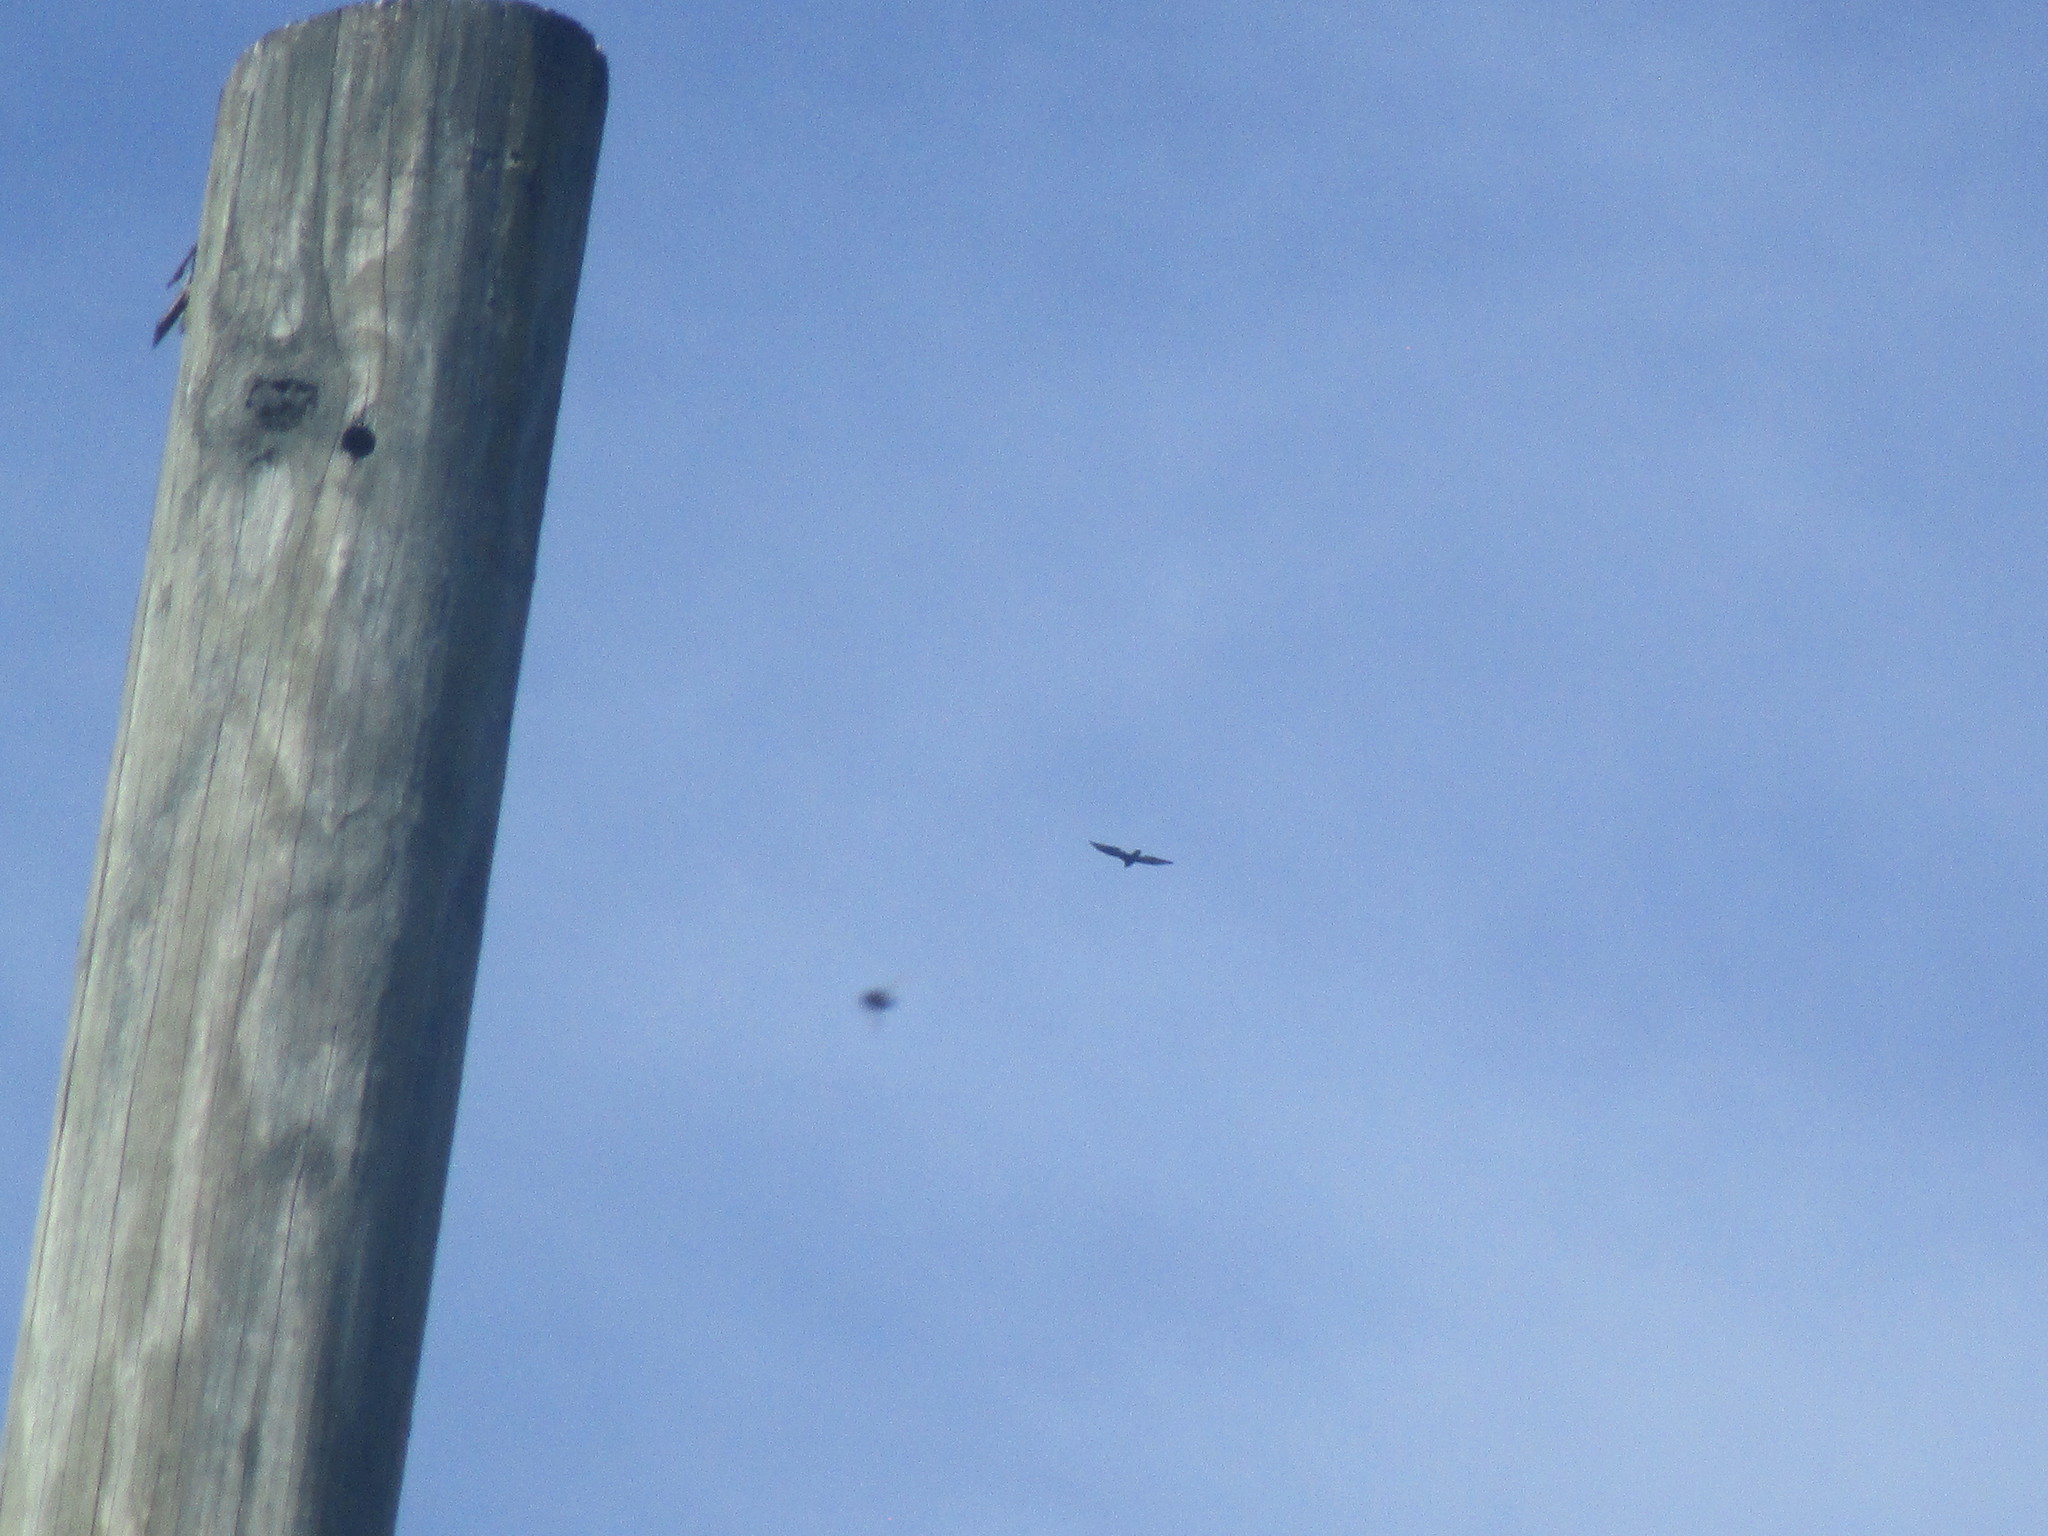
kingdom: Animalia
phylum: Chordata
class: Aves
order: Accipitriformes
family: Cathartidae
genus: Cathartes
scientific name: Cathartes aura
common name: Turkey vulture
